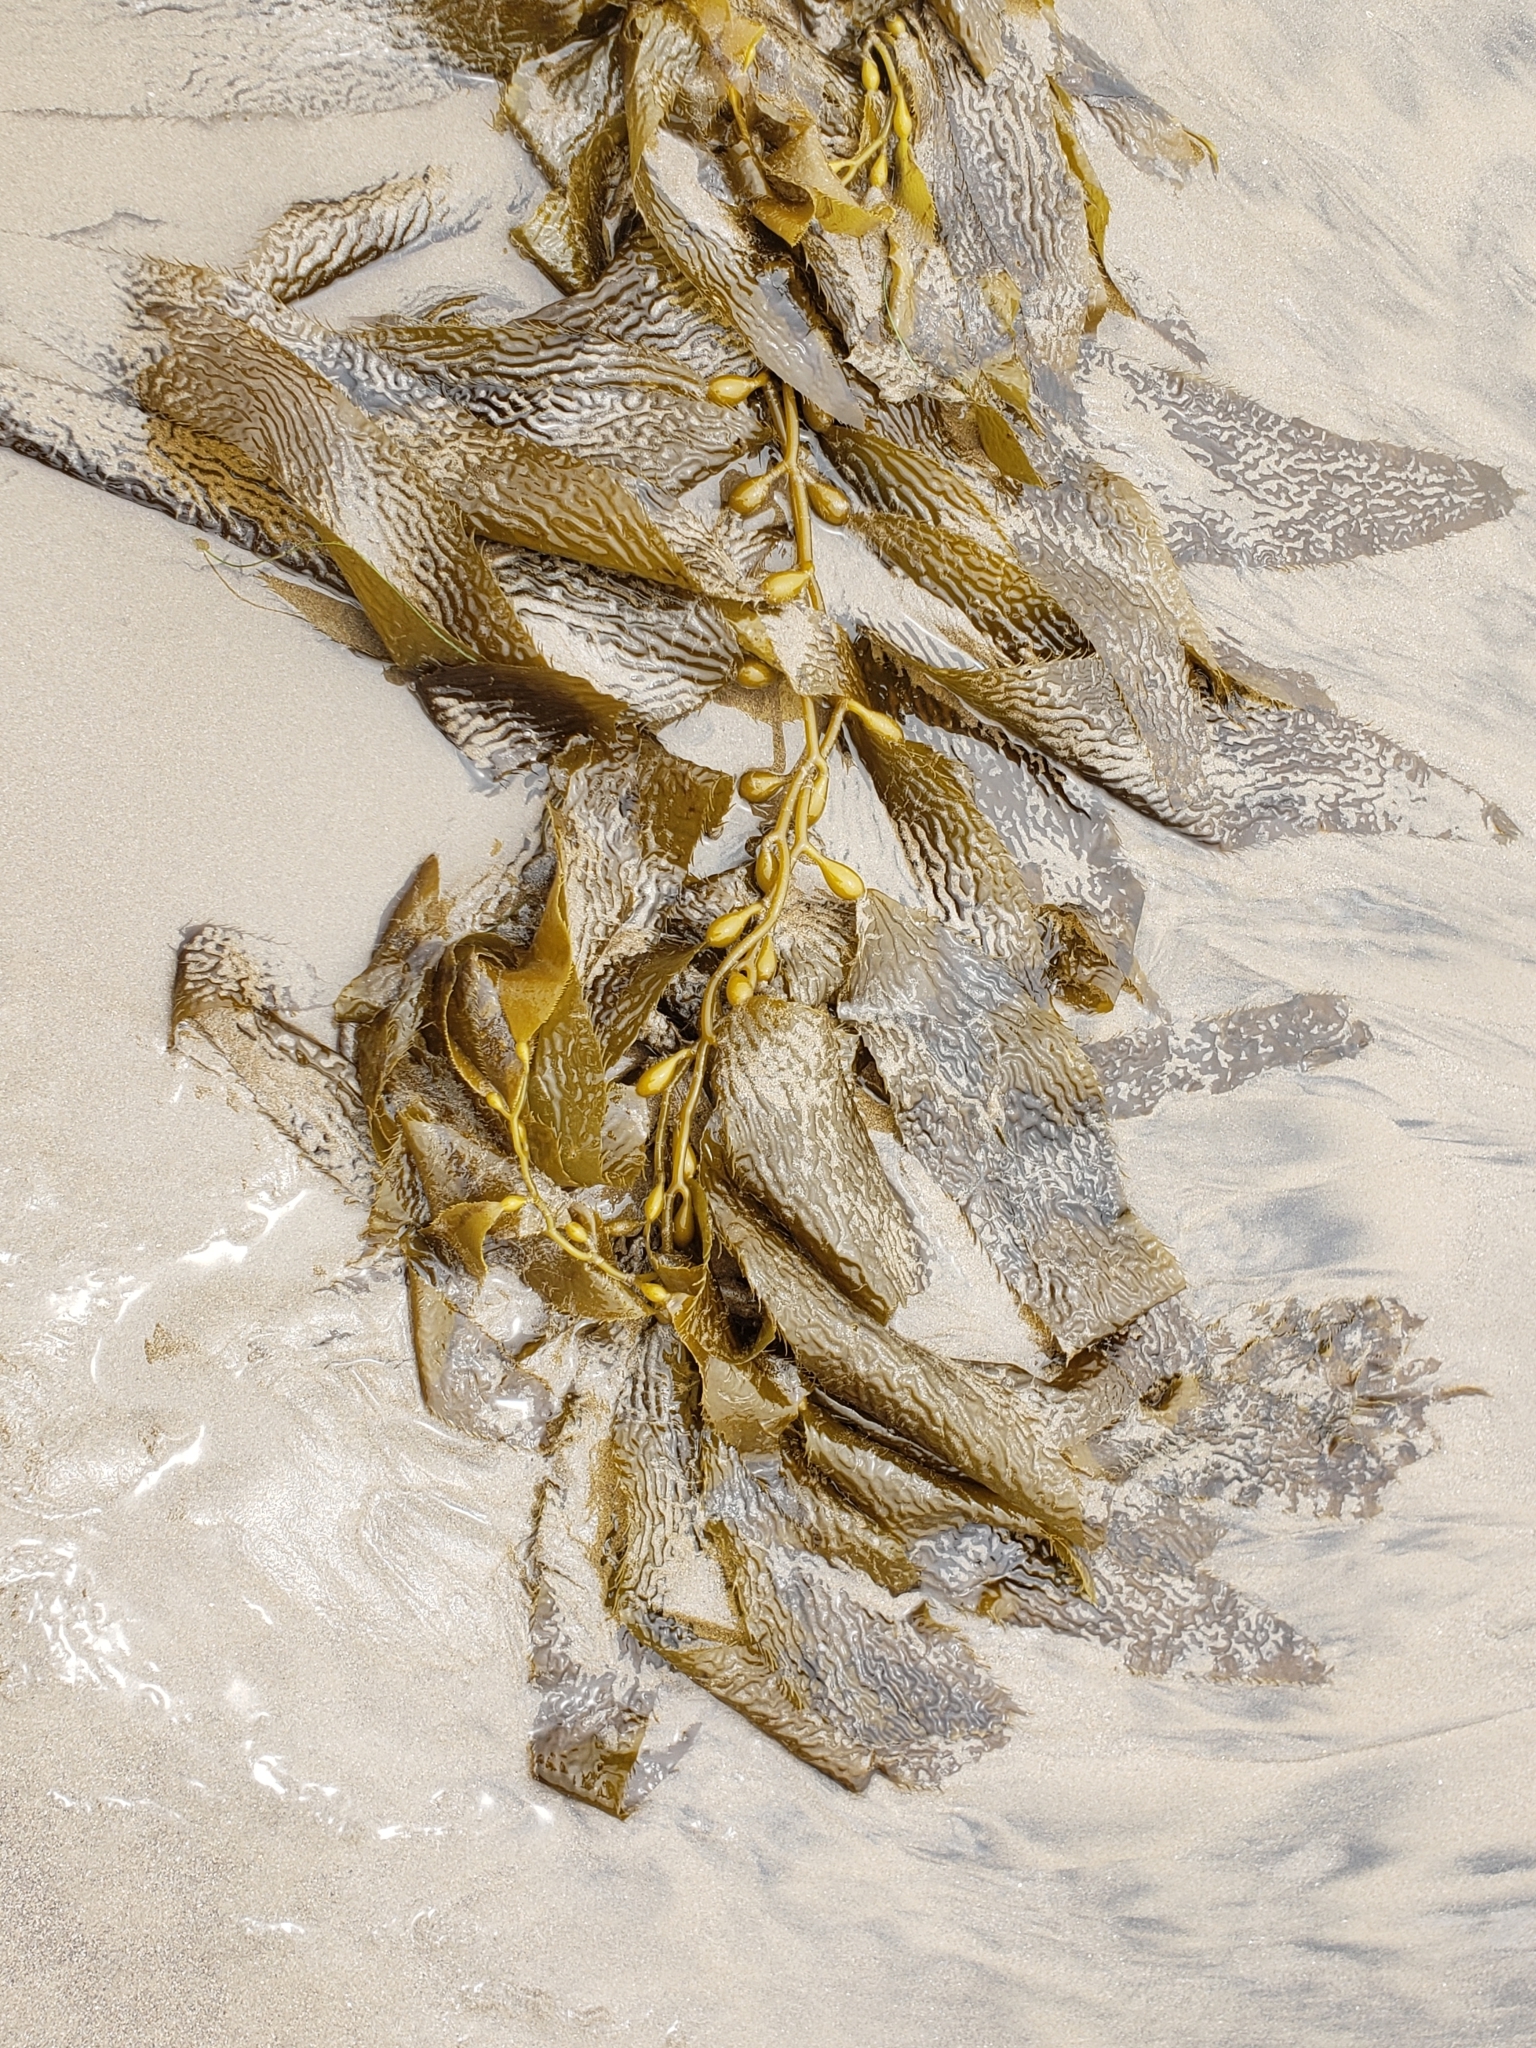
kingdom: Chromista
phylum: Ochrophyta
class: Phaeophyceae
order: Laminariales
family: Laminariaceae
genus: Macrocystis
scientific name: Macrocystis pyrifera
